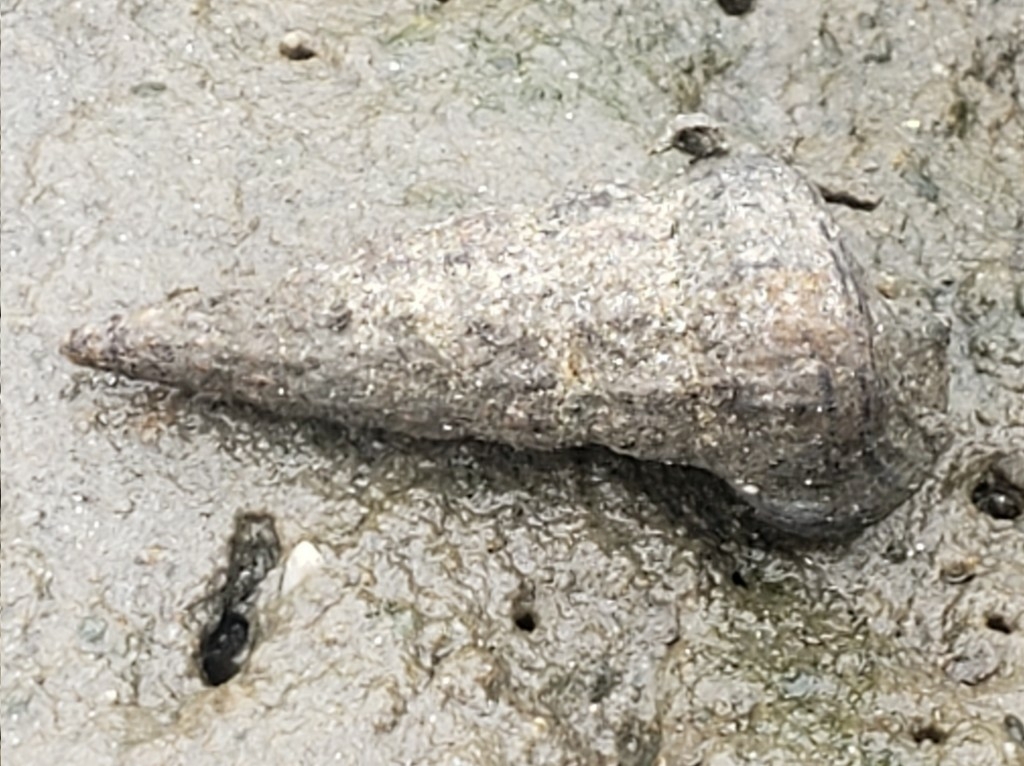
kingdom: Animalia
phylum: Mollusca
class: Gastropoda
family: Potamididae
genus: Cerithideopsis
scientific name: Cerithideopsis californica
